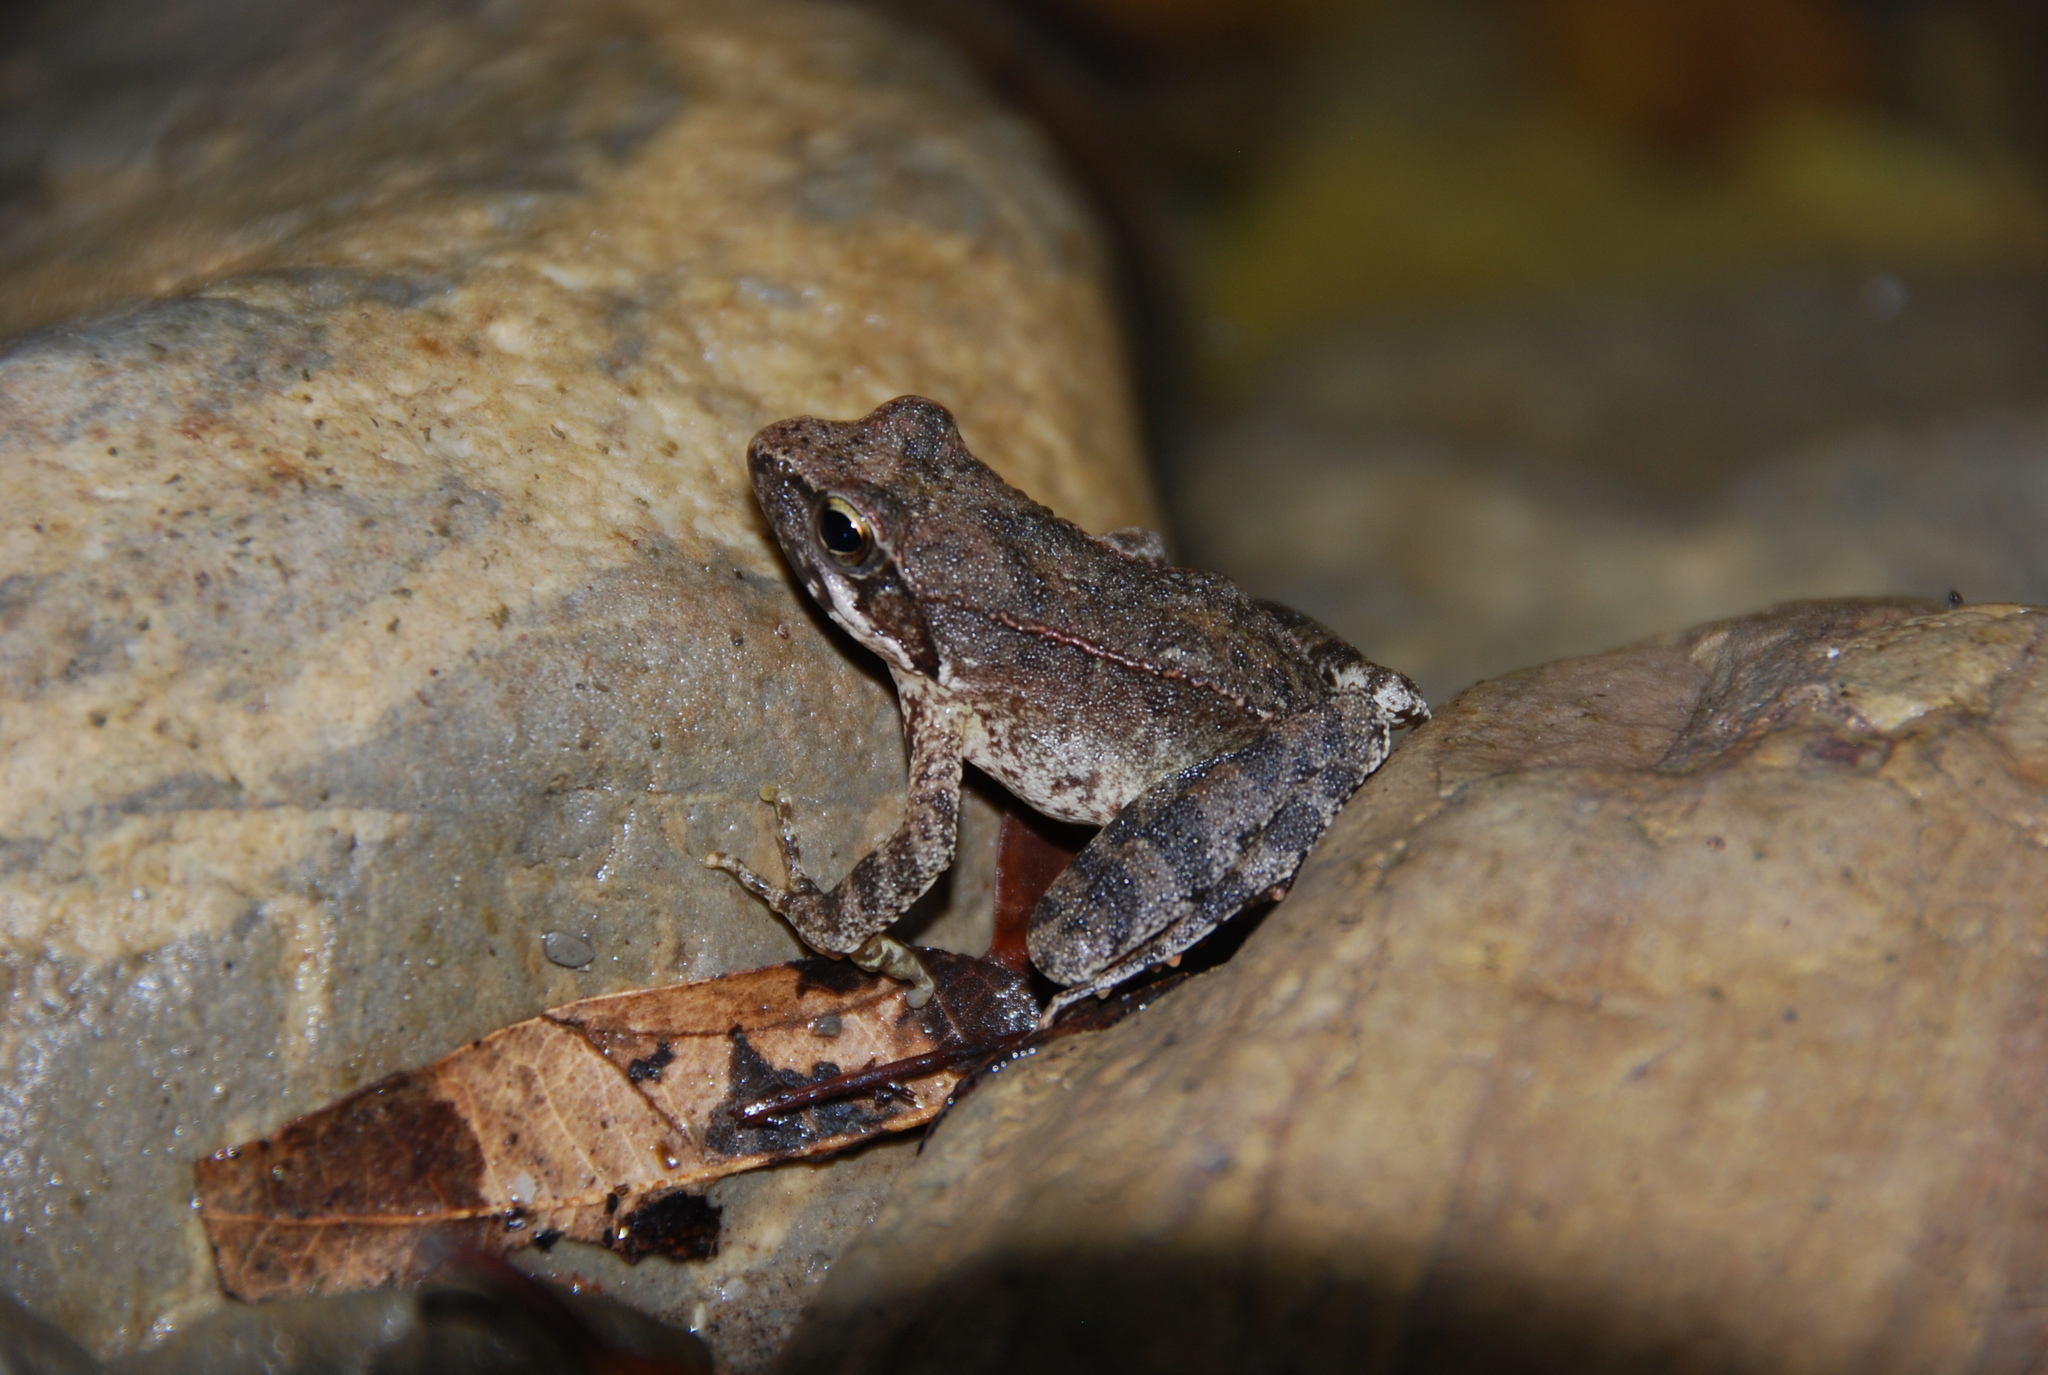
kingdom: Animalia
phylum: Chordata
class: Amphibia
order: Anura
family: Ranidae
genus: Rana
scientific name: Rana italica
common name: Italian stream frog
